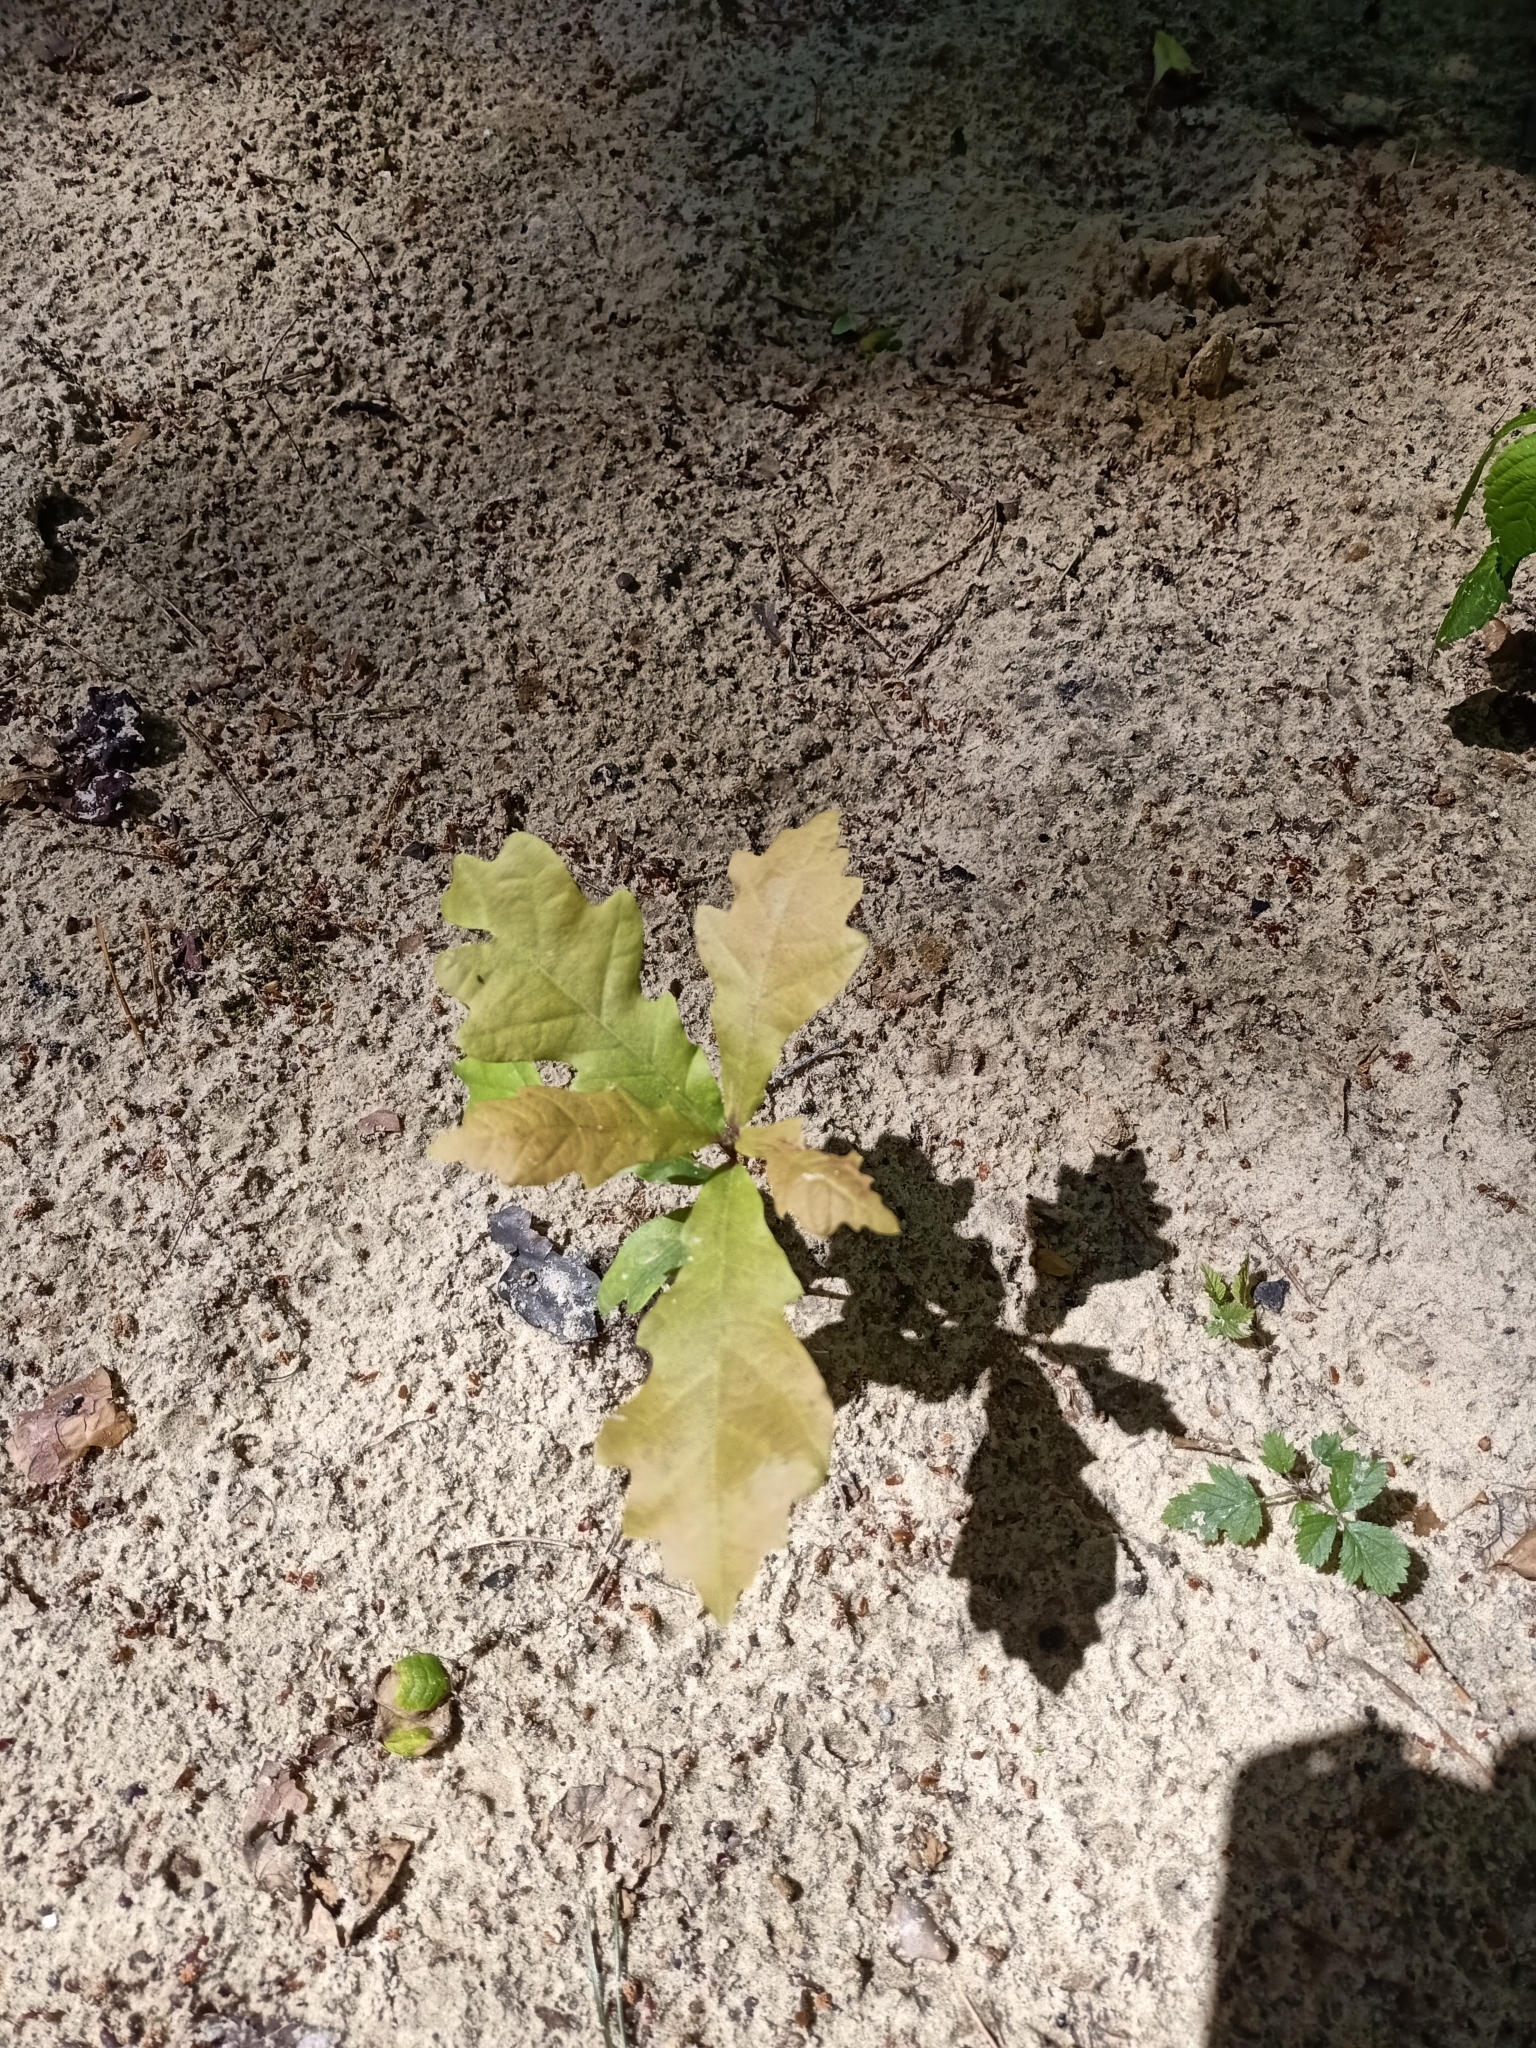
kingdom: Plantae
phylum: Tracheophyta
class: Magnoliopsida
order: Fagales
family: Fagaceae
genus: Quercus
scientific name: Quercus robur
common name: Pedunculate oak
